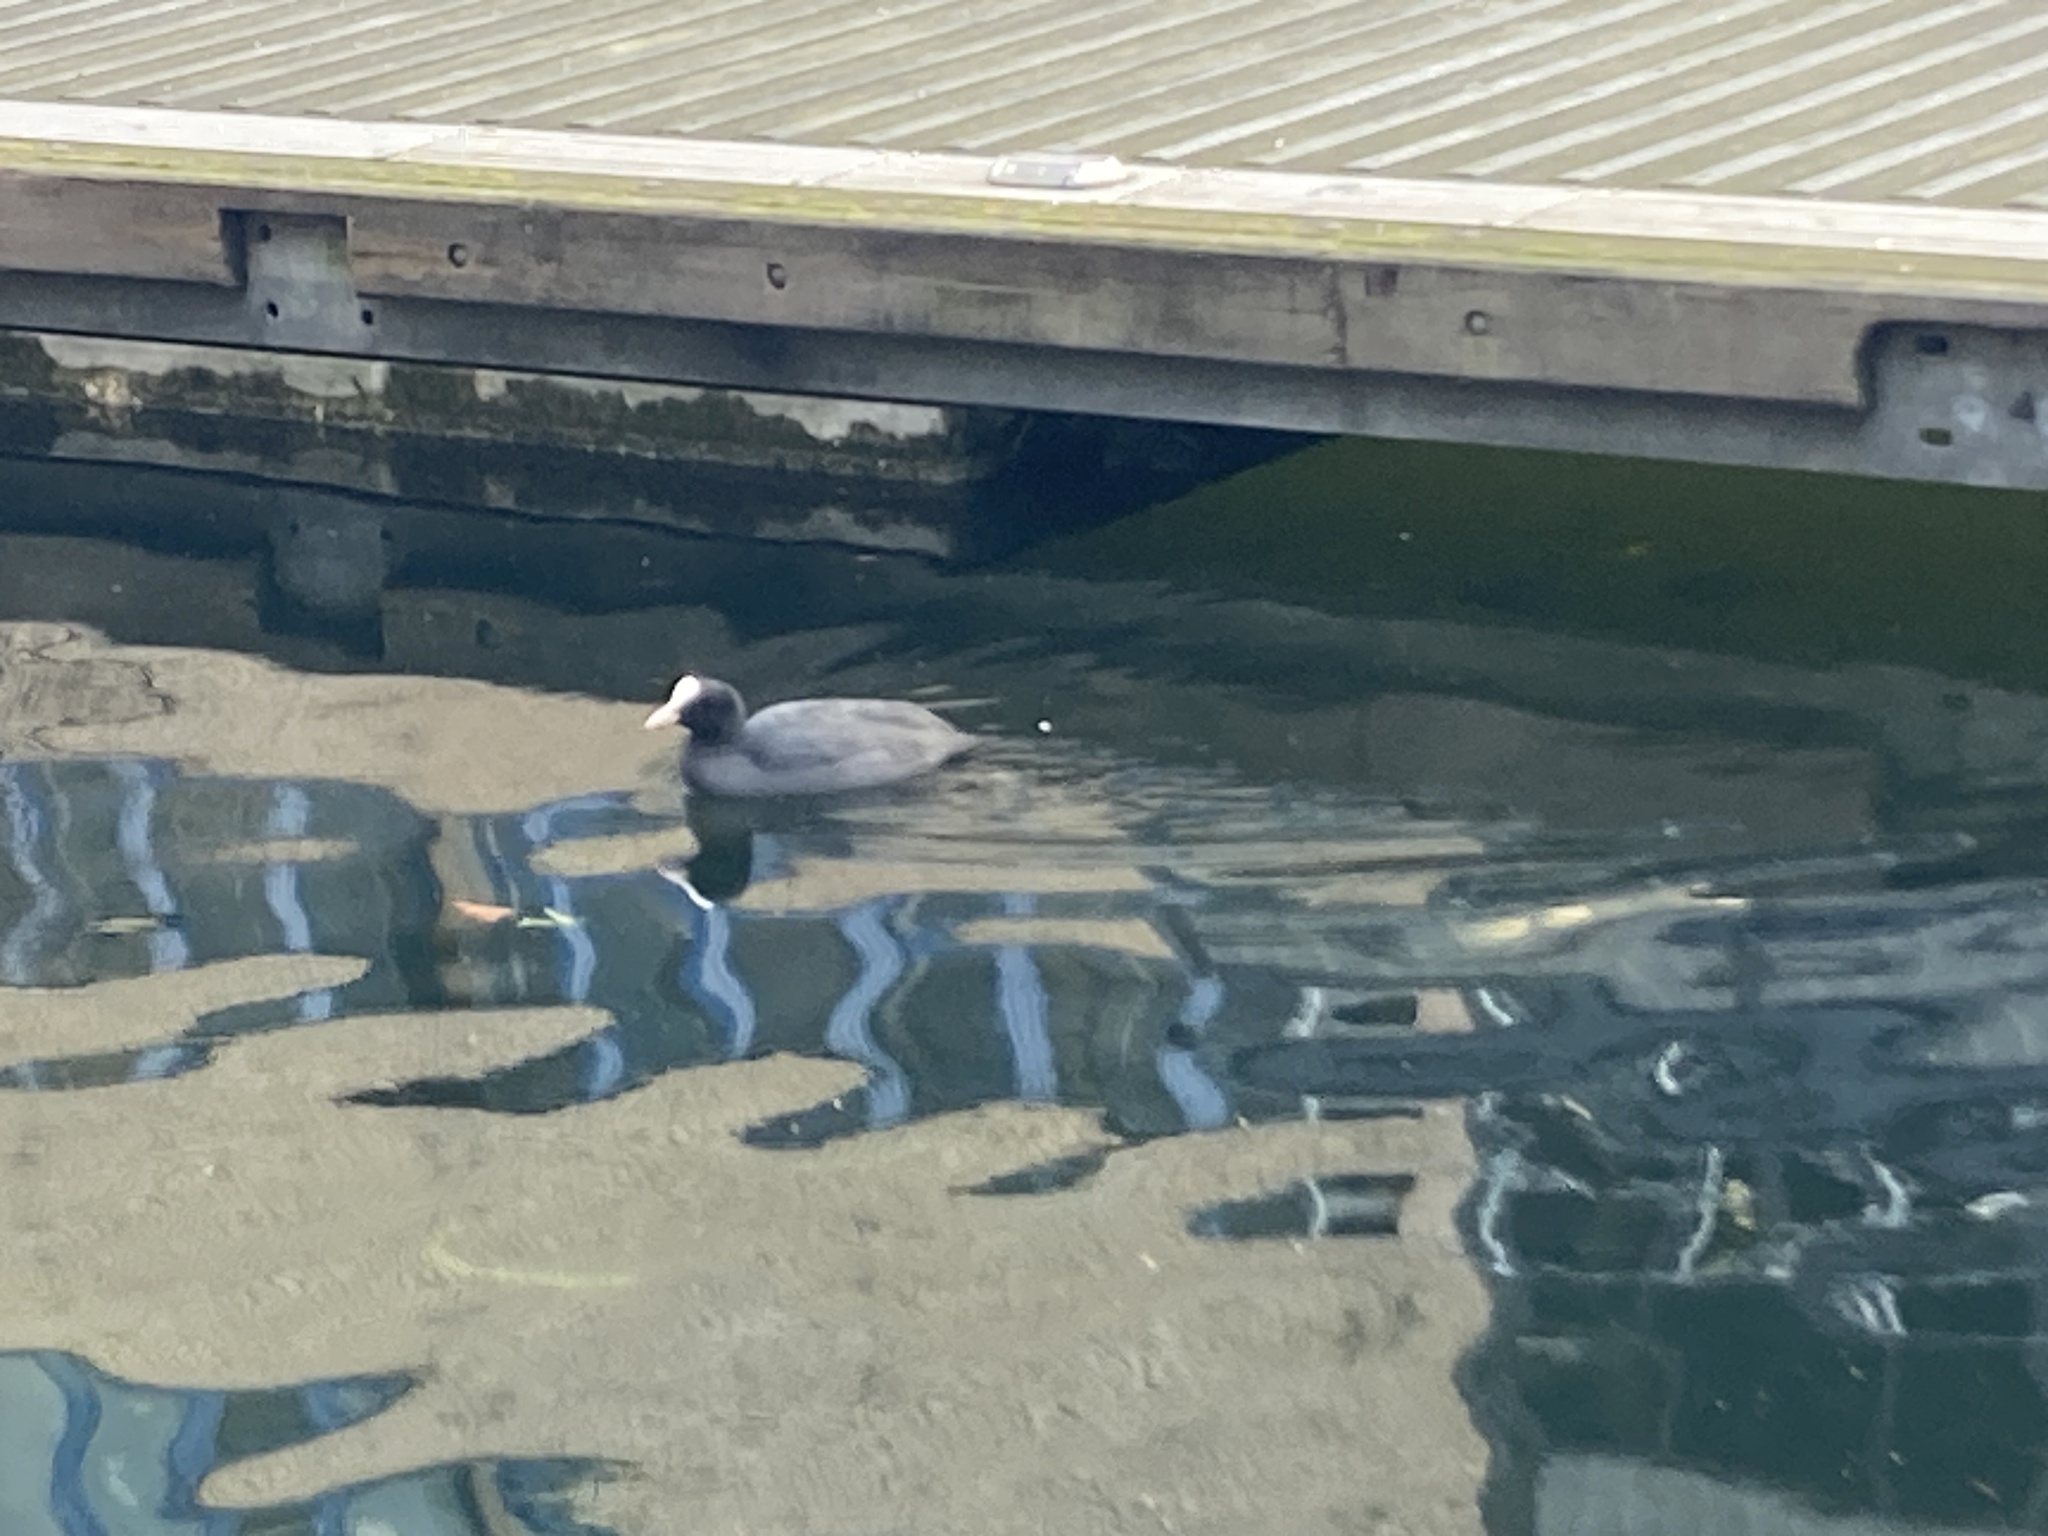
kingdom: Animalia
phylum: Chordata
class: Aves
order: Gruiformes
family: Rallidae
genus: Fulica
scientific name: Fulica atra
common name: Eurasian coot
